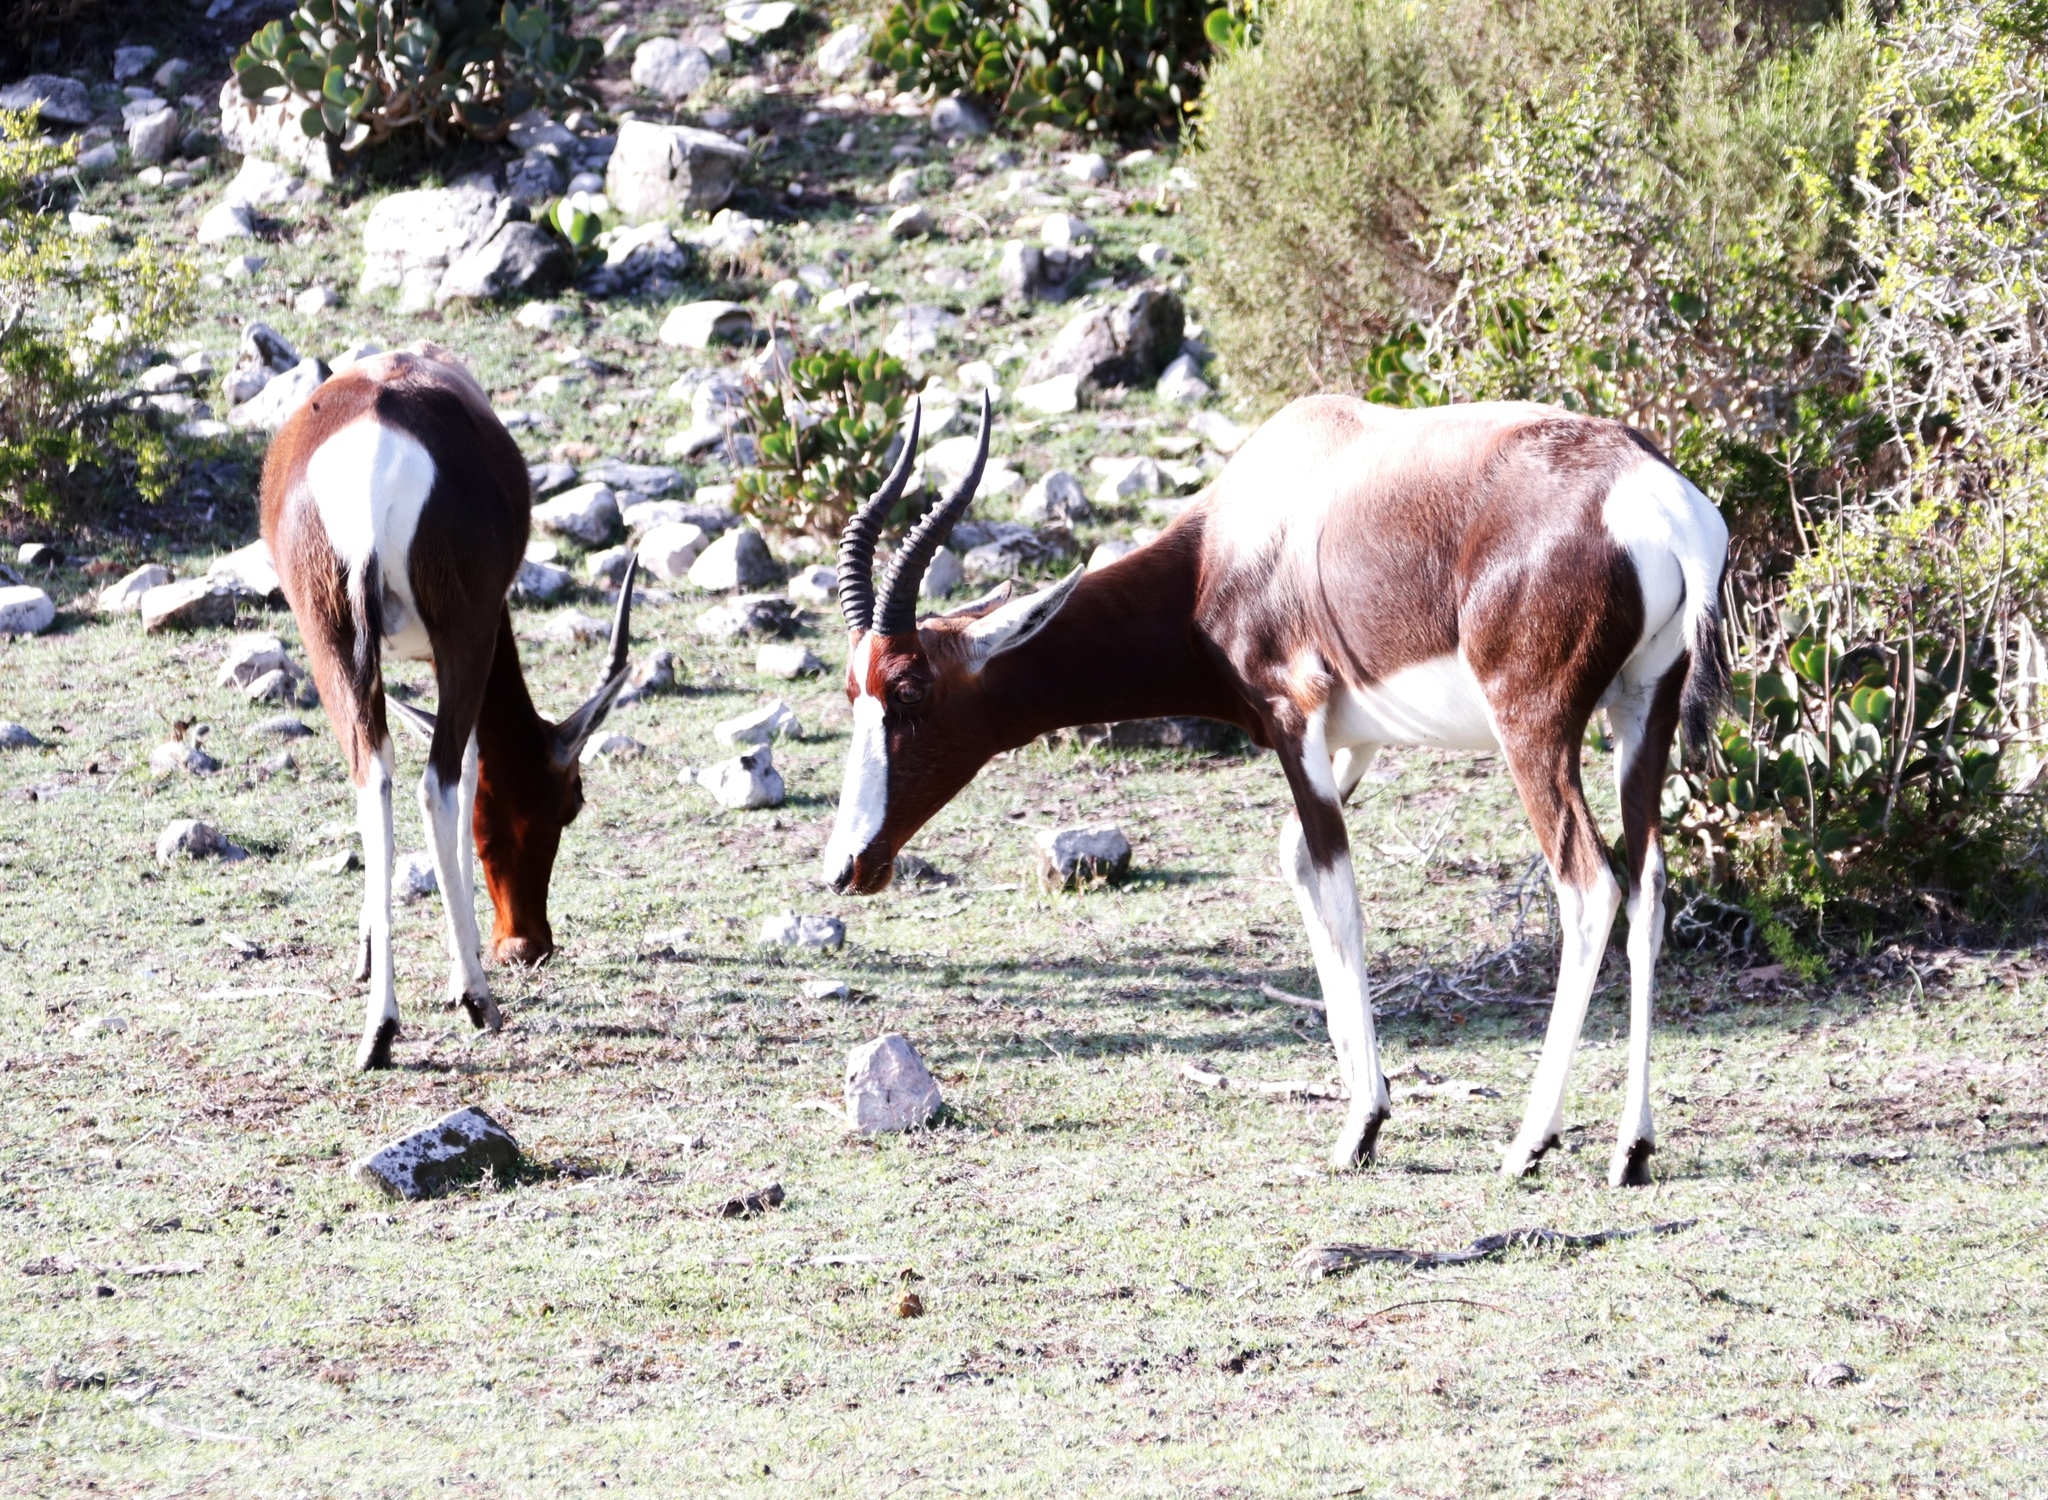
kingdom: Animalia
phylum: Chordata
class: Mammalia
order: Artiodactyla
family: Bovidae
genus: Damaliscus
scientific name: Damaliscus pygargus
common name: Bontebok
